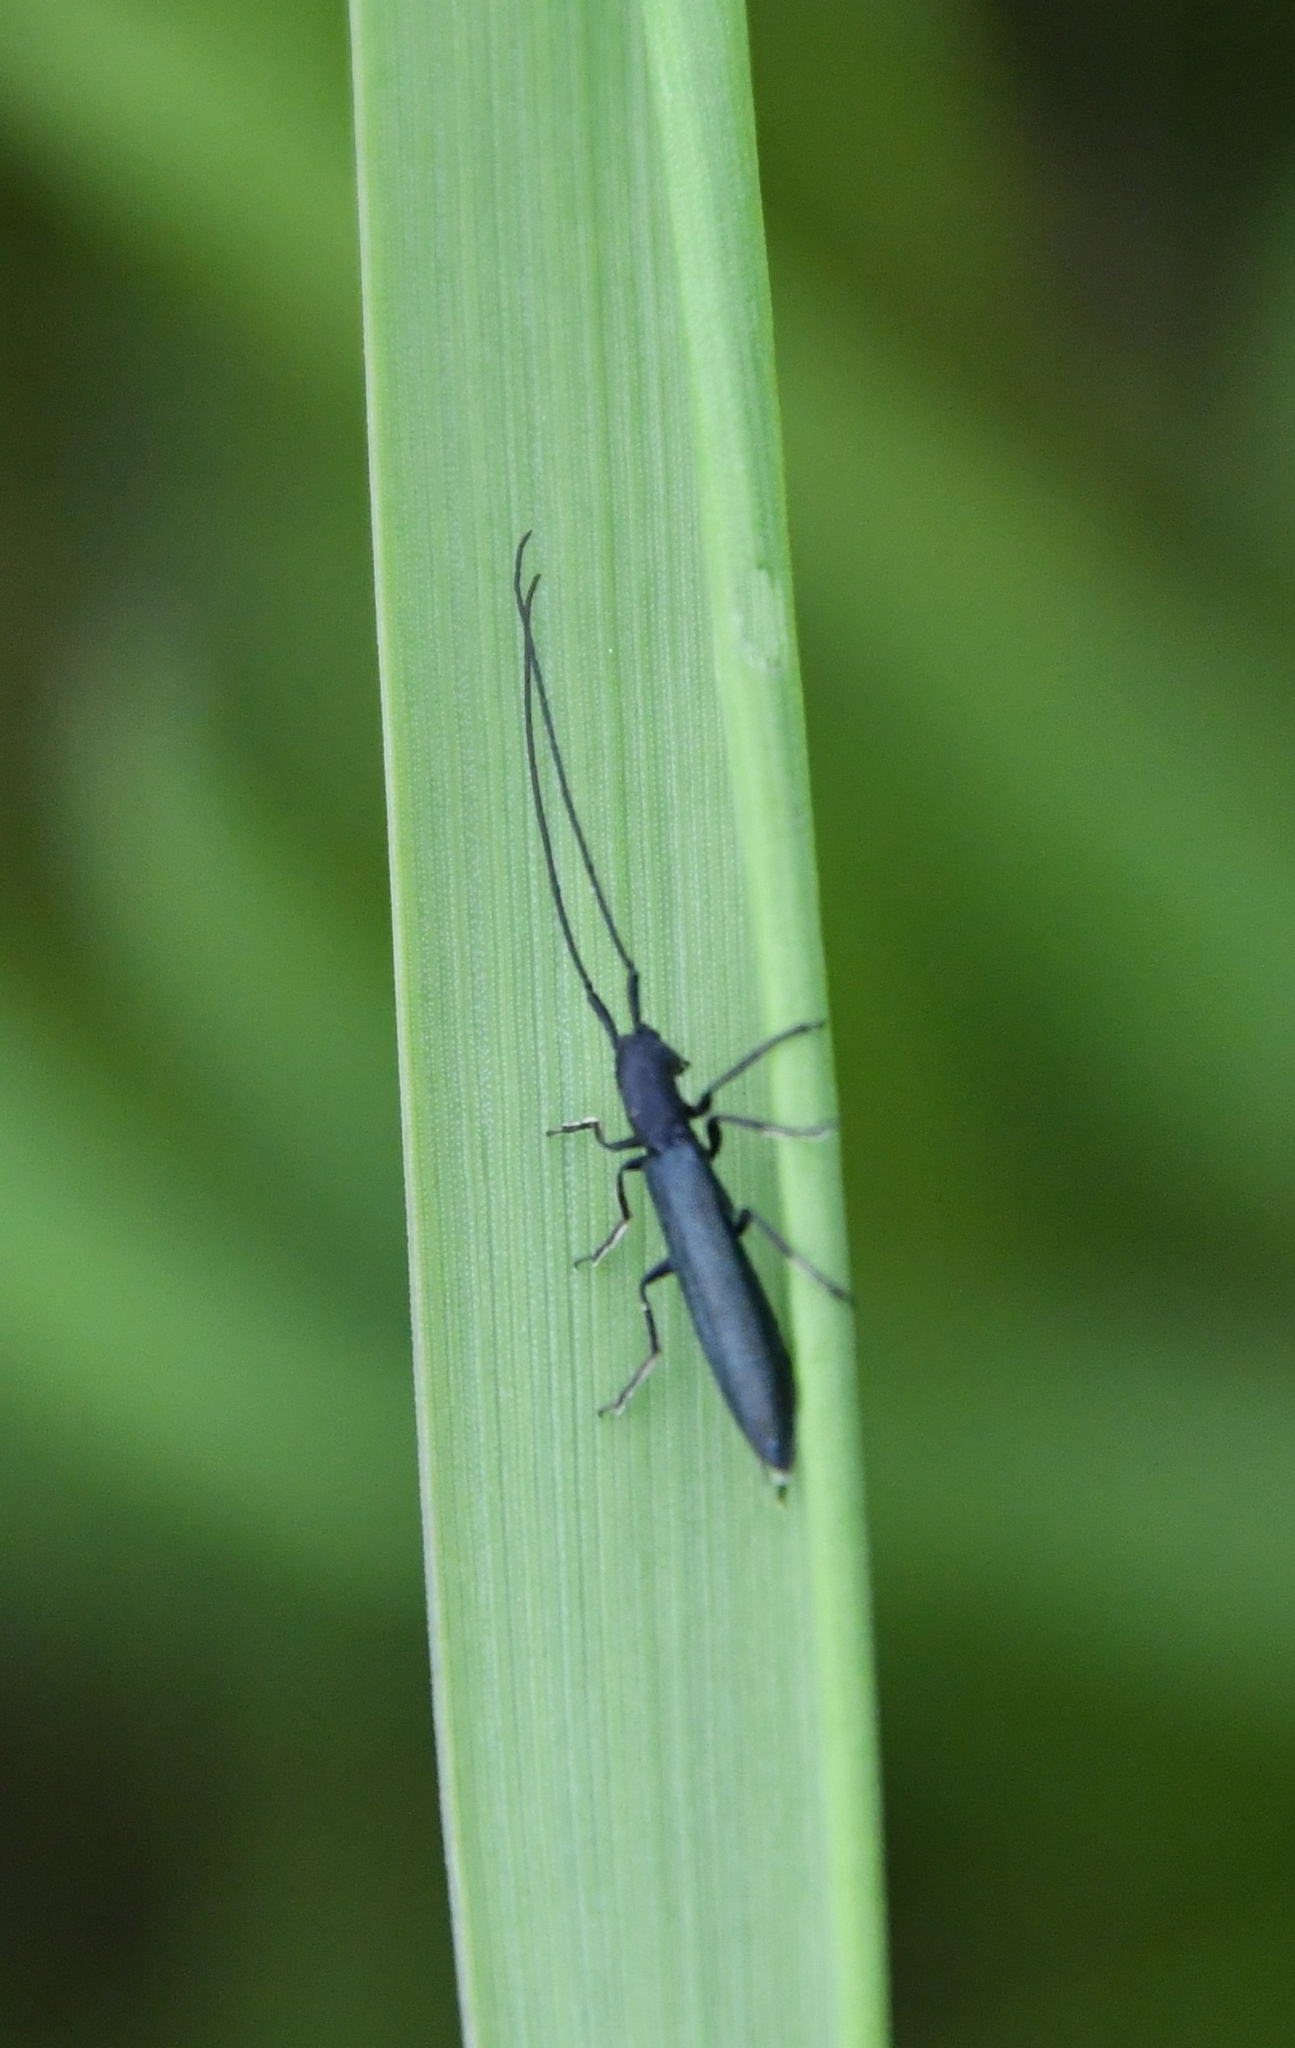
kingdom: Animalia
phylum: Arthropoda
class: Insecta
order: Coleoptera
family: Cerambycidae
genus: Theophilea
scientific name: Theophilea subcylindricollis
